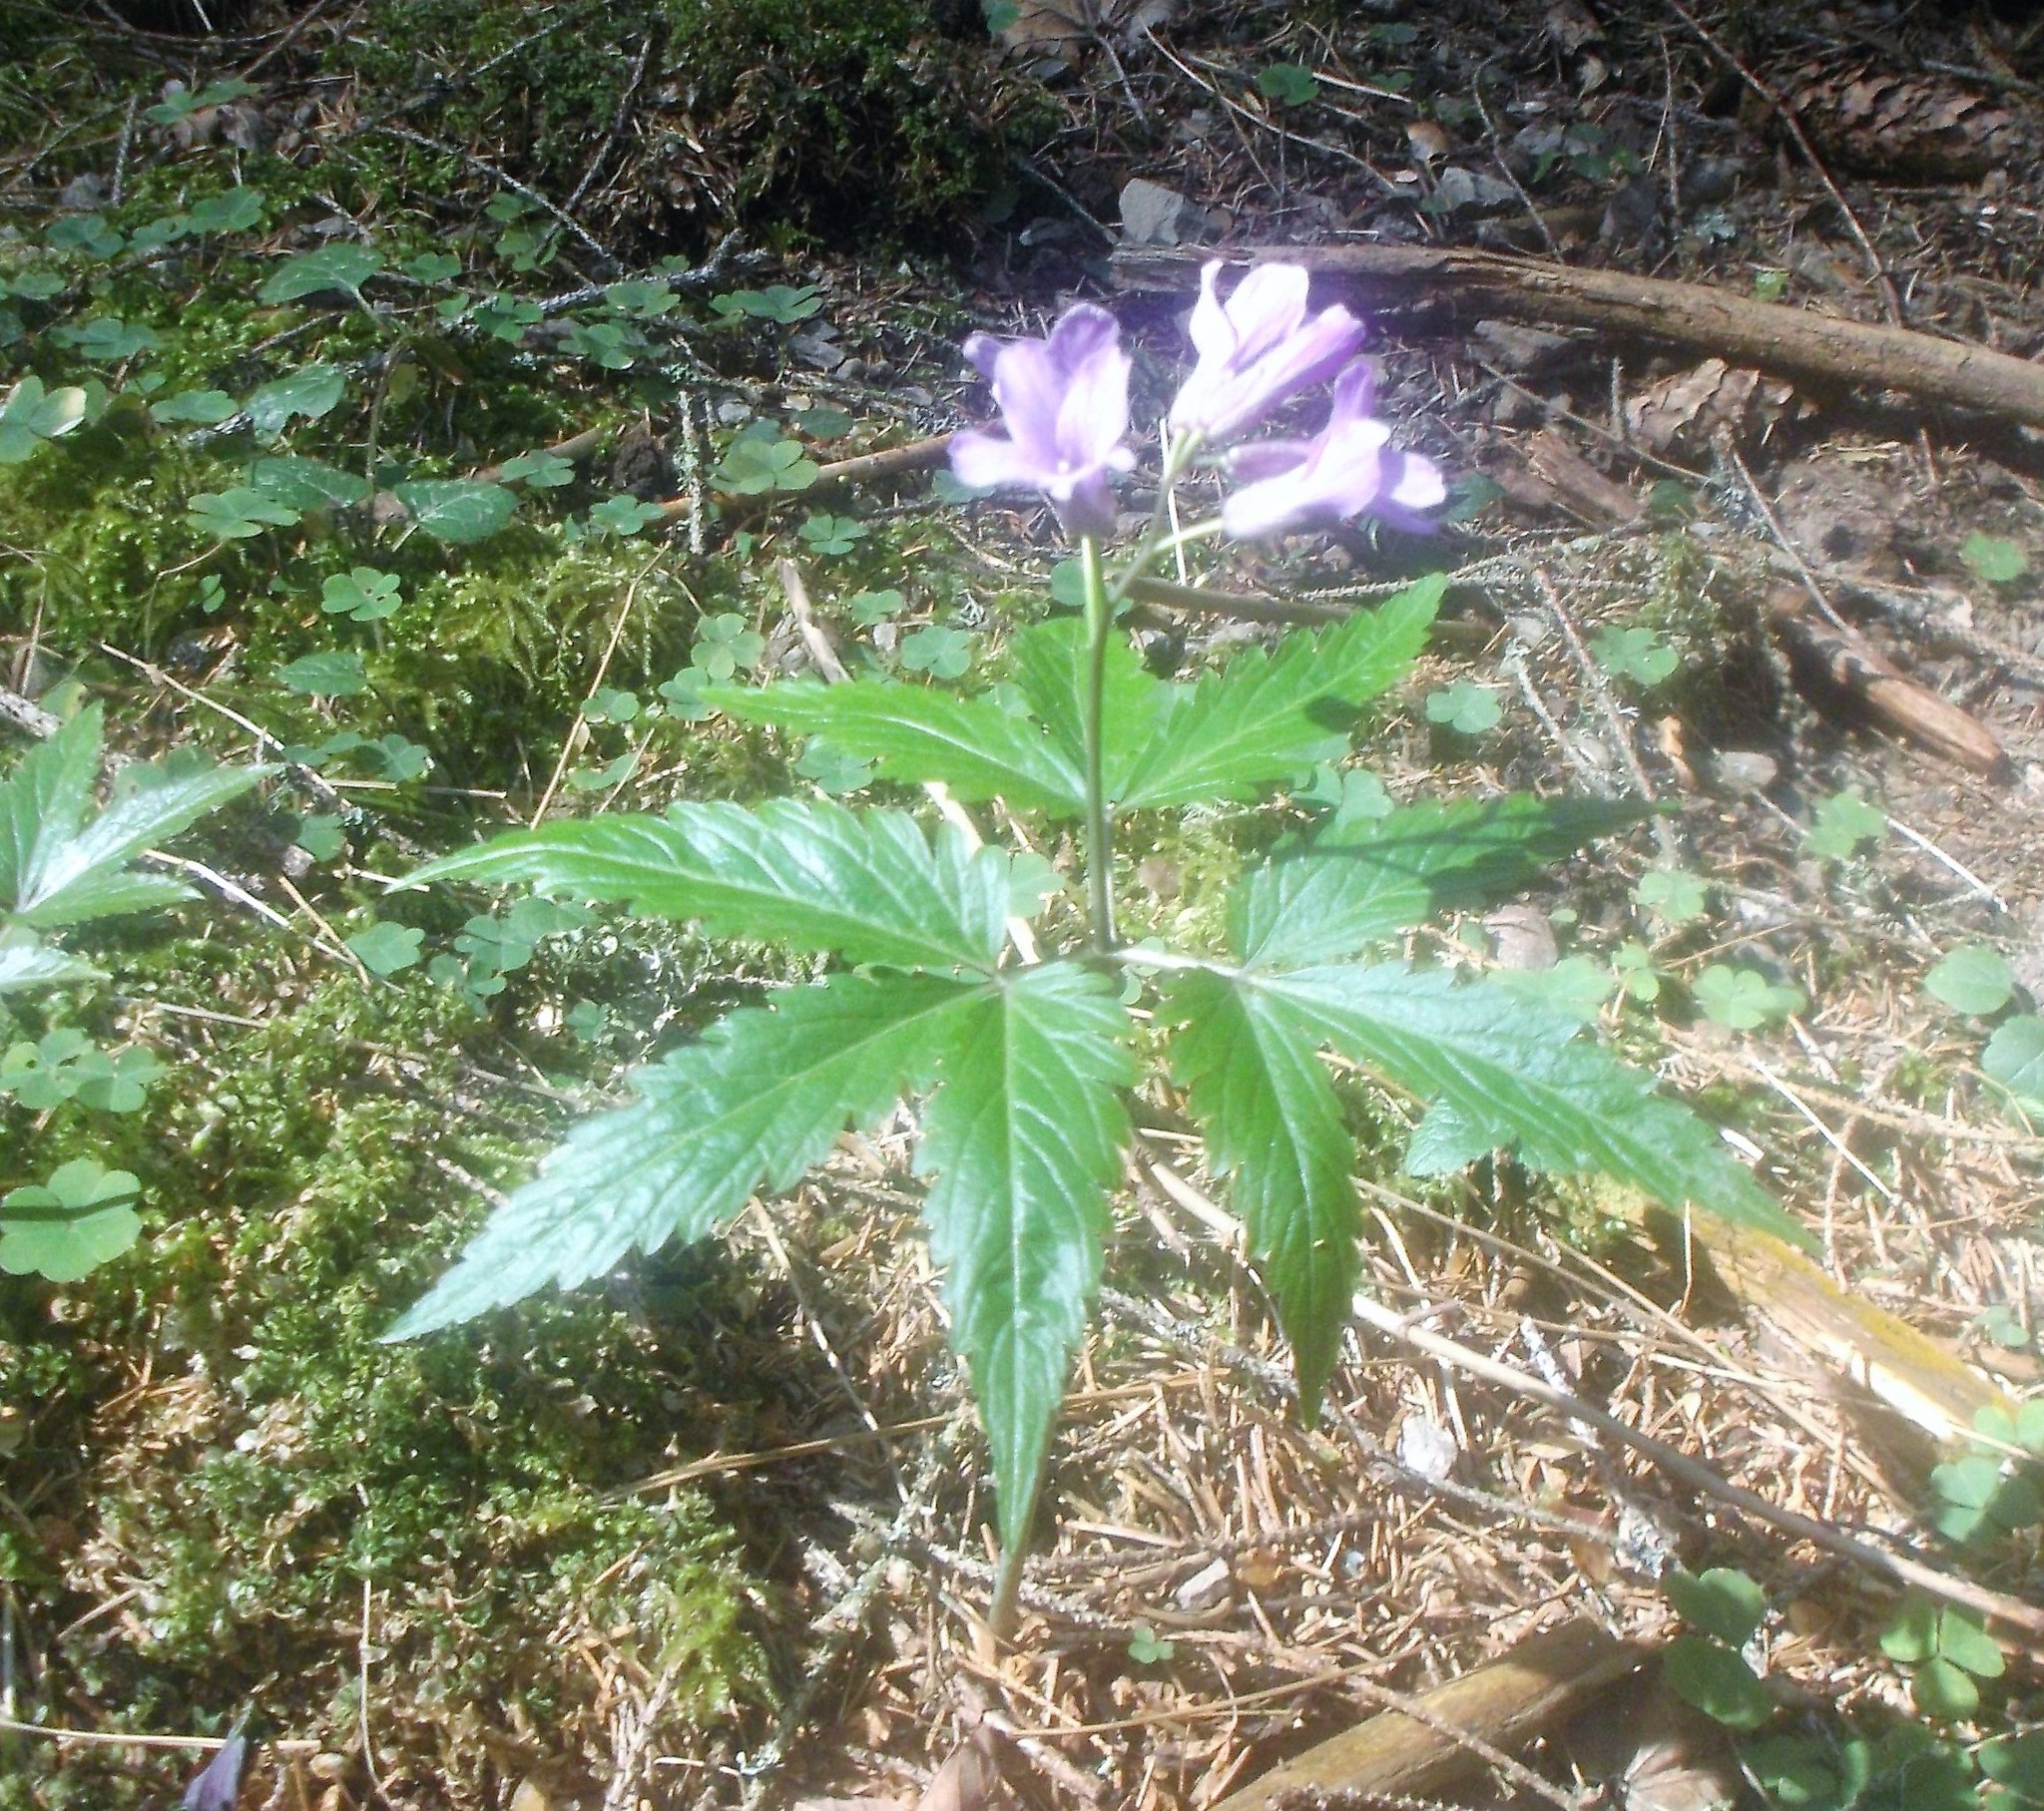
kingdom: Plantae
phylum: Tracheophyta
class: Magnoliopsida
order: Brassicales
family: Brassicaceae
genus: Cardamine
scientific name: Cardamine glanduligera
